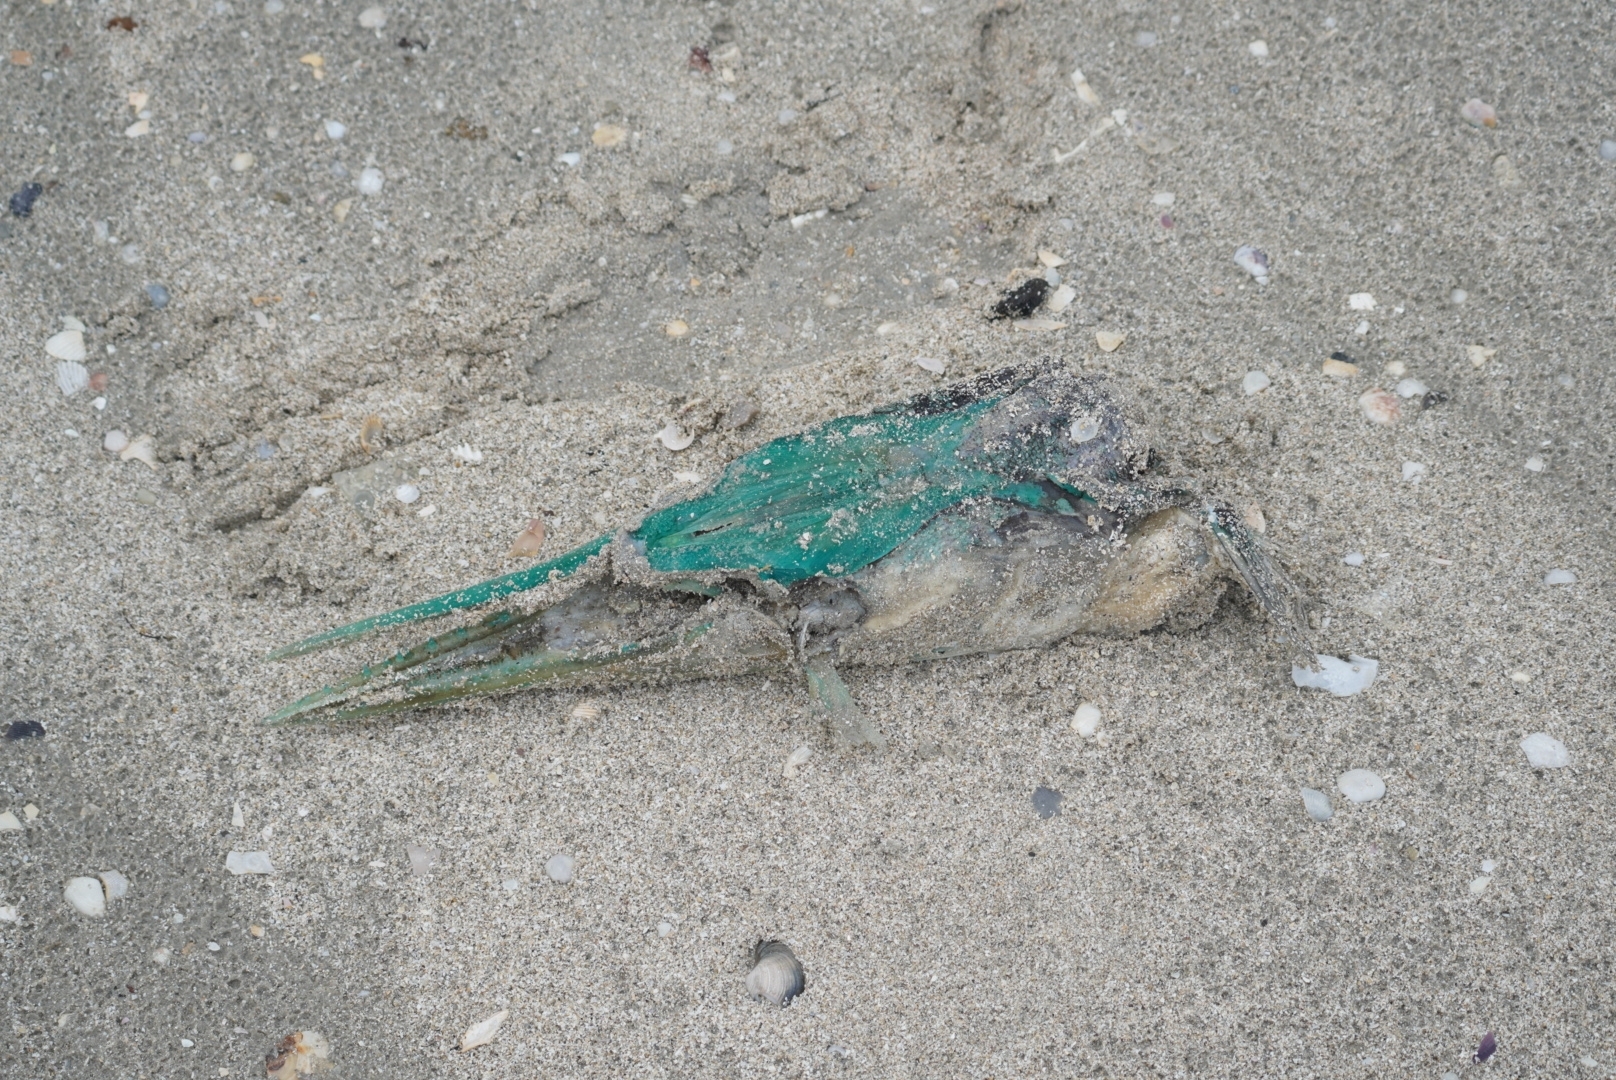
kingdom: Animalia
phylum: Chordata
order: Beloniformes
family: Belonidae
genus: Tylosurus
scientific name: Tylosurus crocodilus
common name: Houndfish
